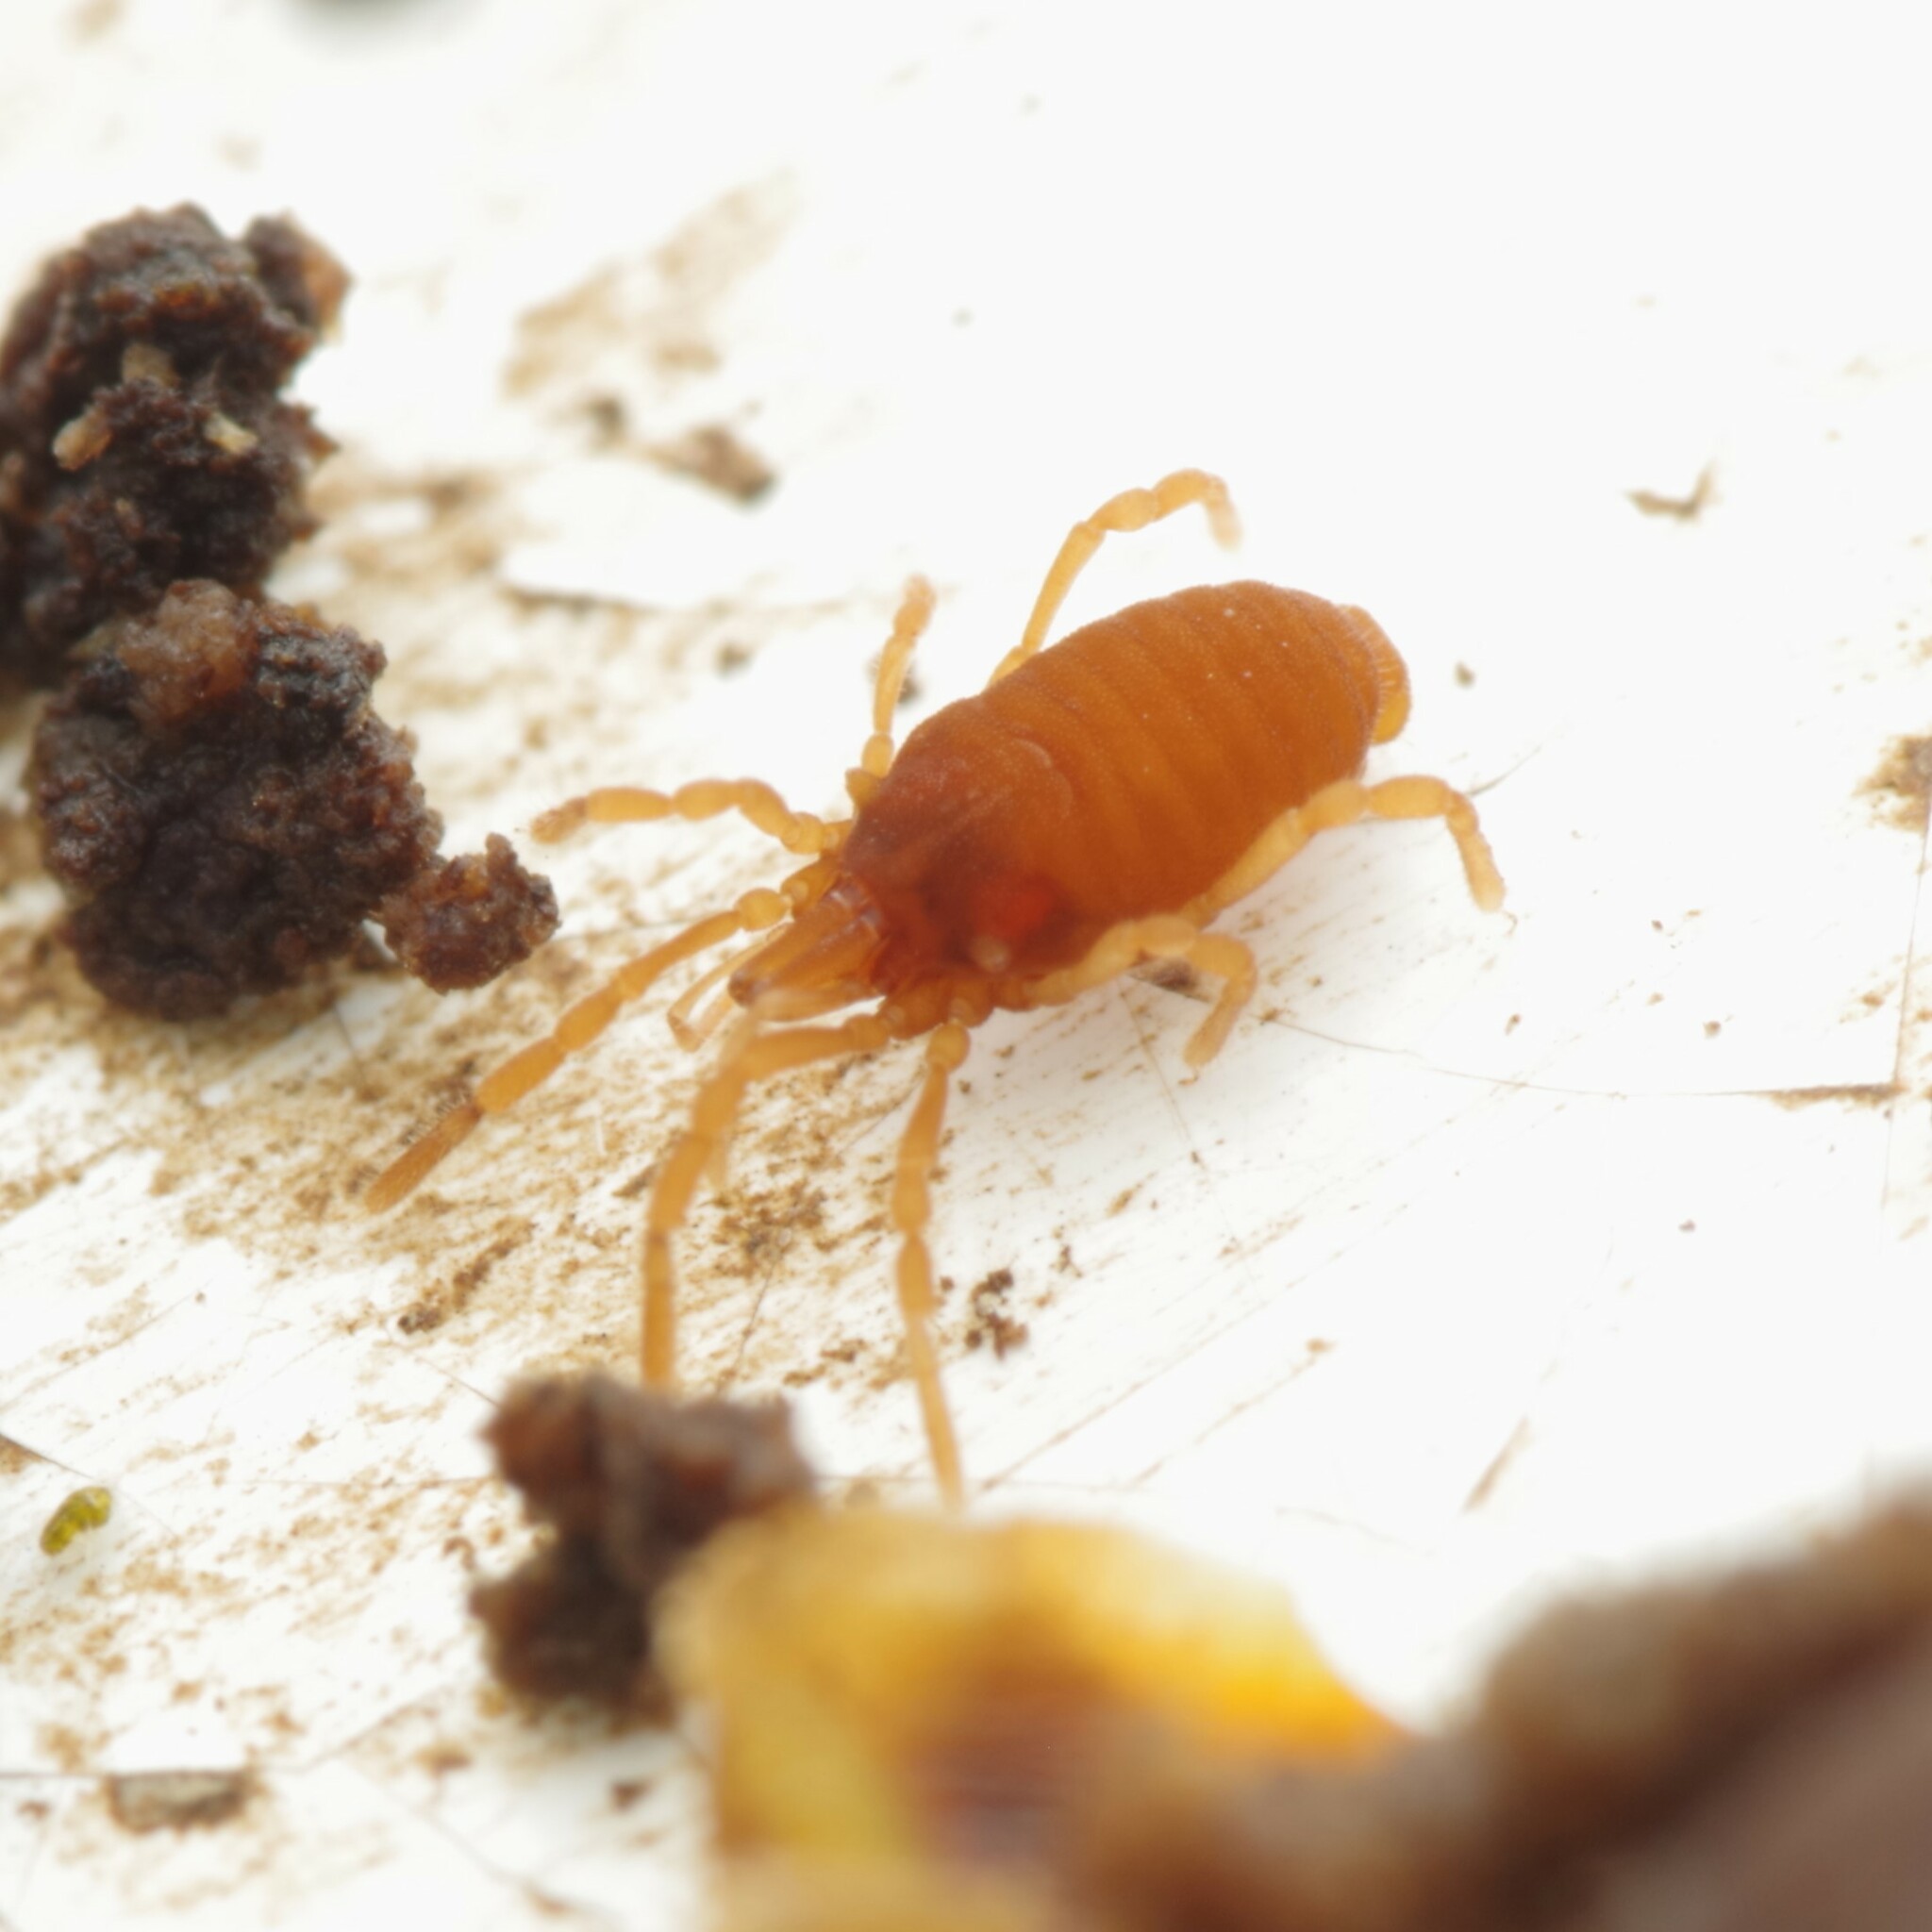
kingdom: Animalia
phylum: Arthropoda
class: Arachnida
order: Opiliones
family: Sironidae
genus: Siro
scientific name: Siro rubens
